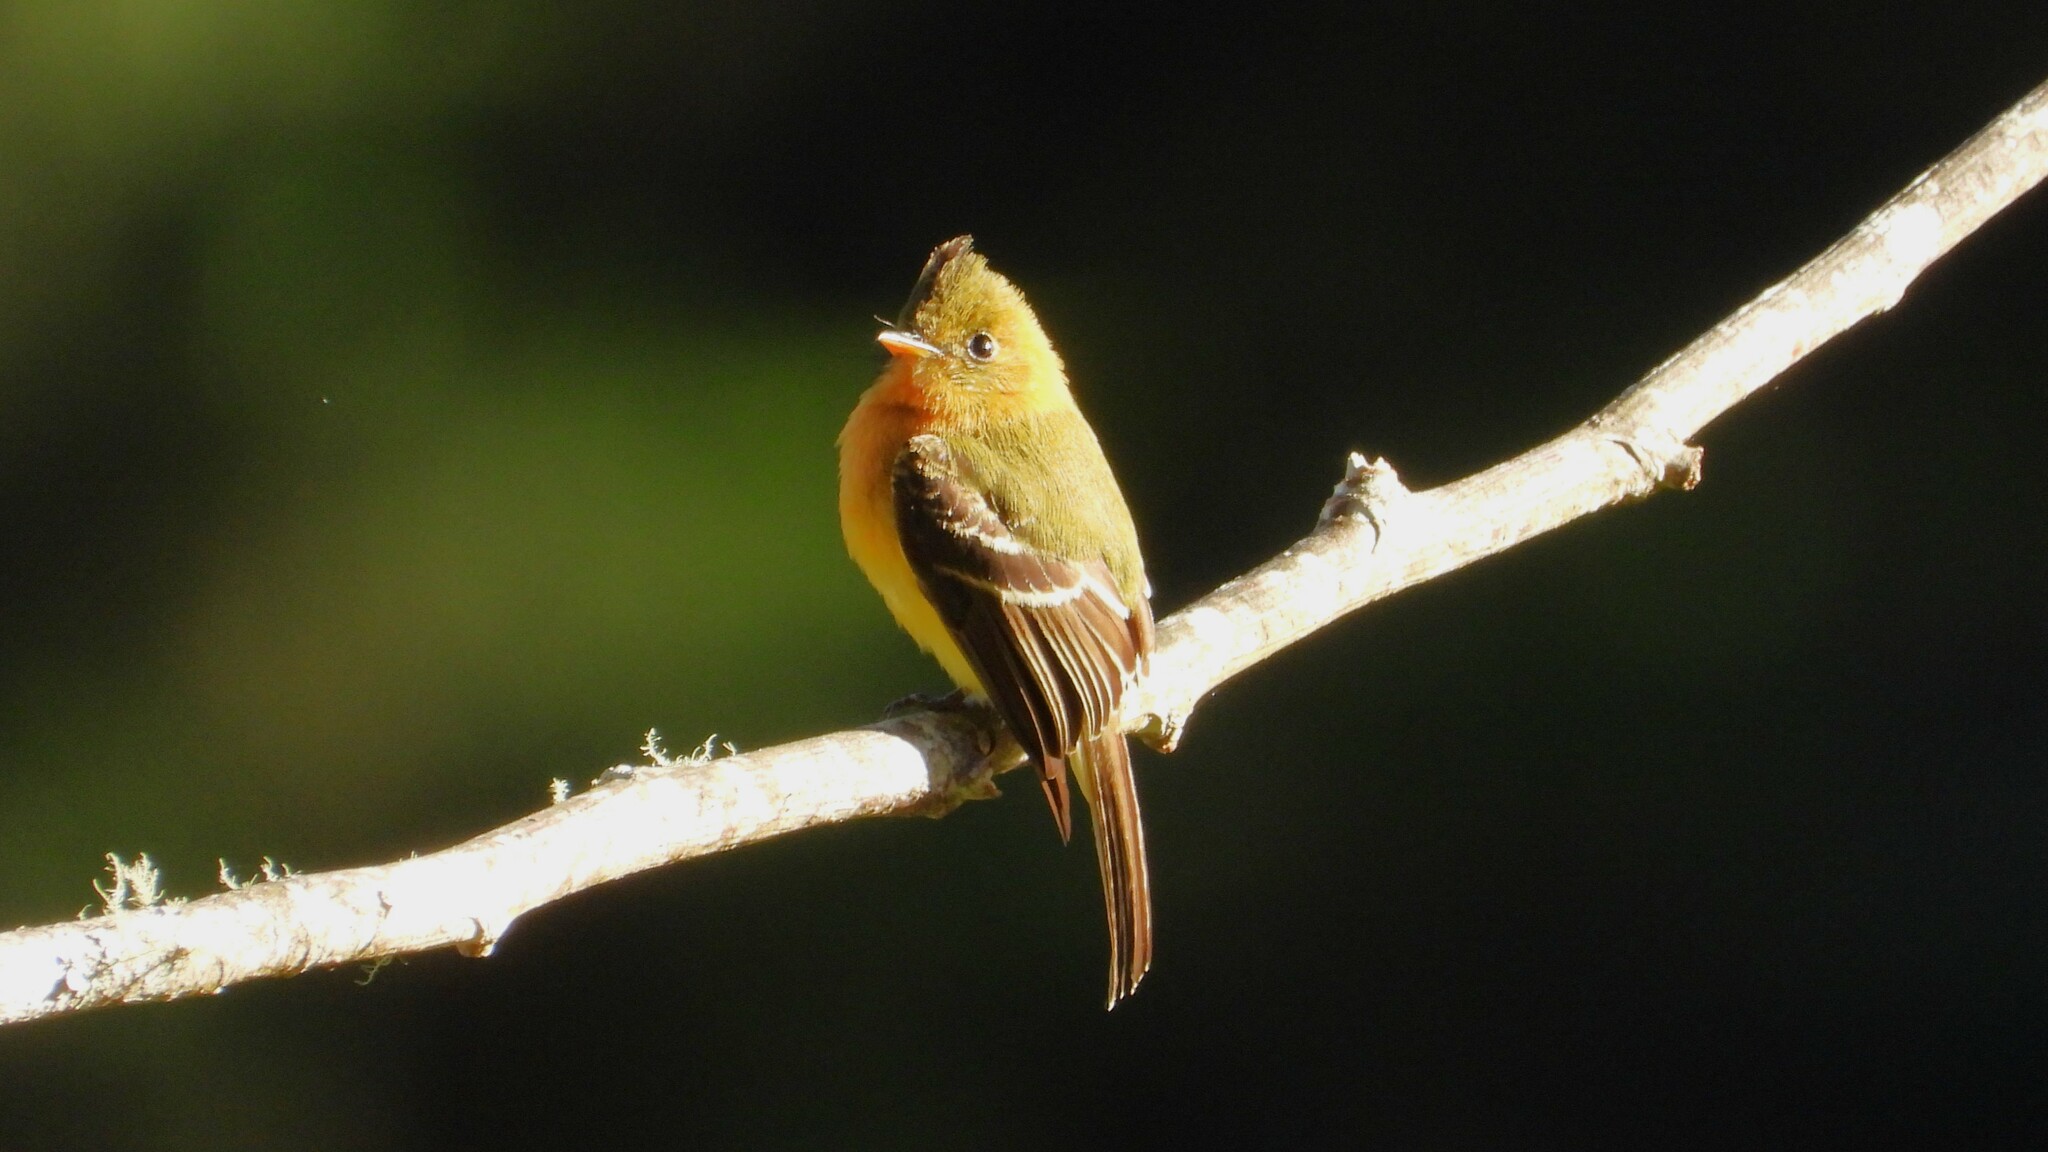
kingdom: Animalia
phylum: Chordata
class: Aves
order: Passeriformes
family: Tyrannidae
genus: Mitrephanes
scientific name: Mitrephanes phaeocercus
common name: Northern tufted flycatcher
